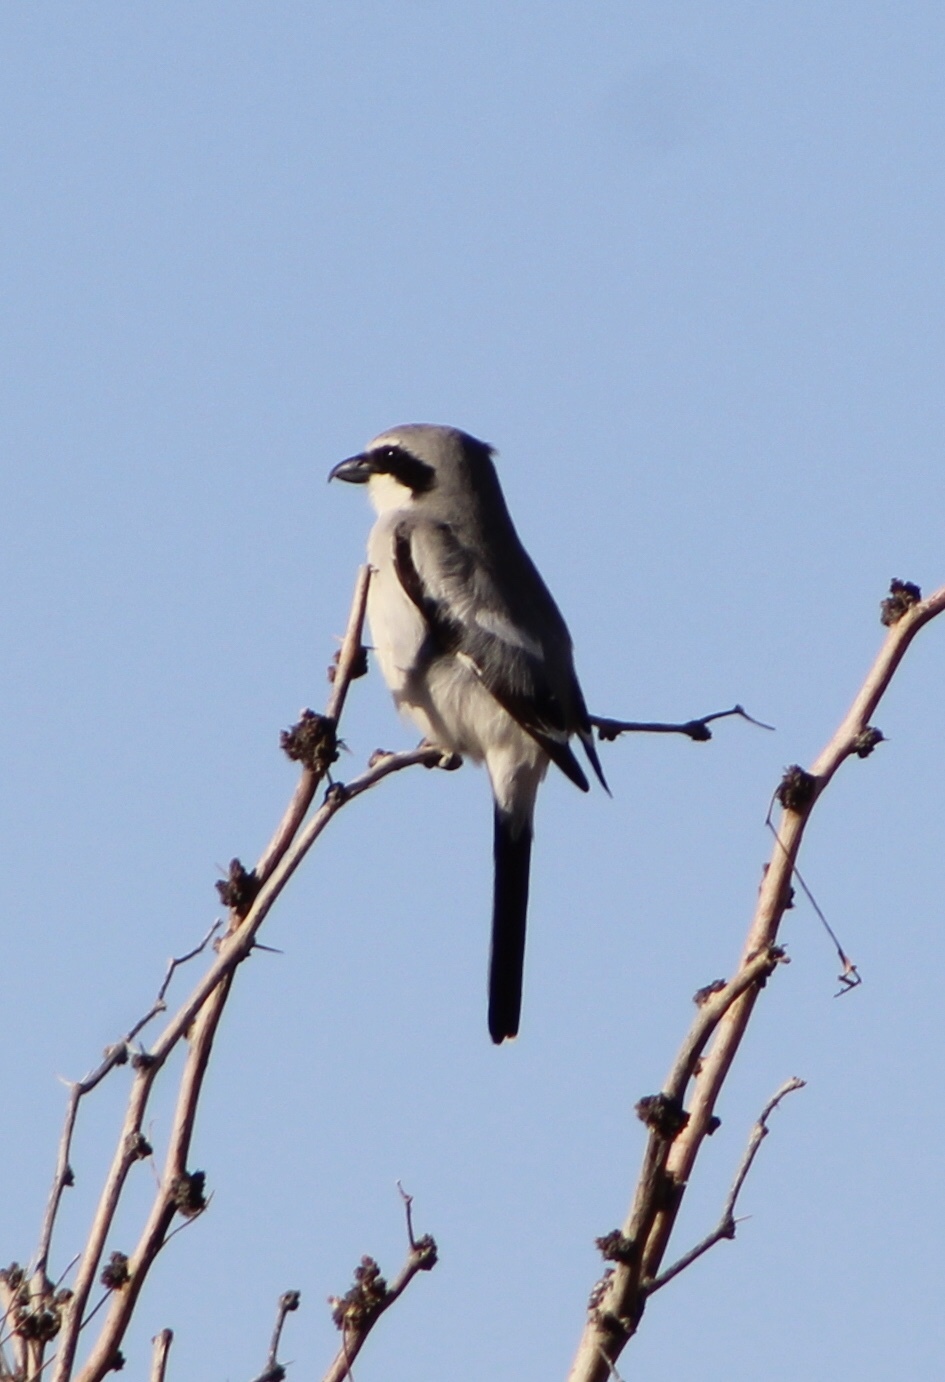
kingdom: Animalia
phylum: Chordata
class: Aves
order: Passeriformes
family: Laniidae
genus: Lanius
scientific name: Lanius ludovicianus
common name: Loggerhead shrike
